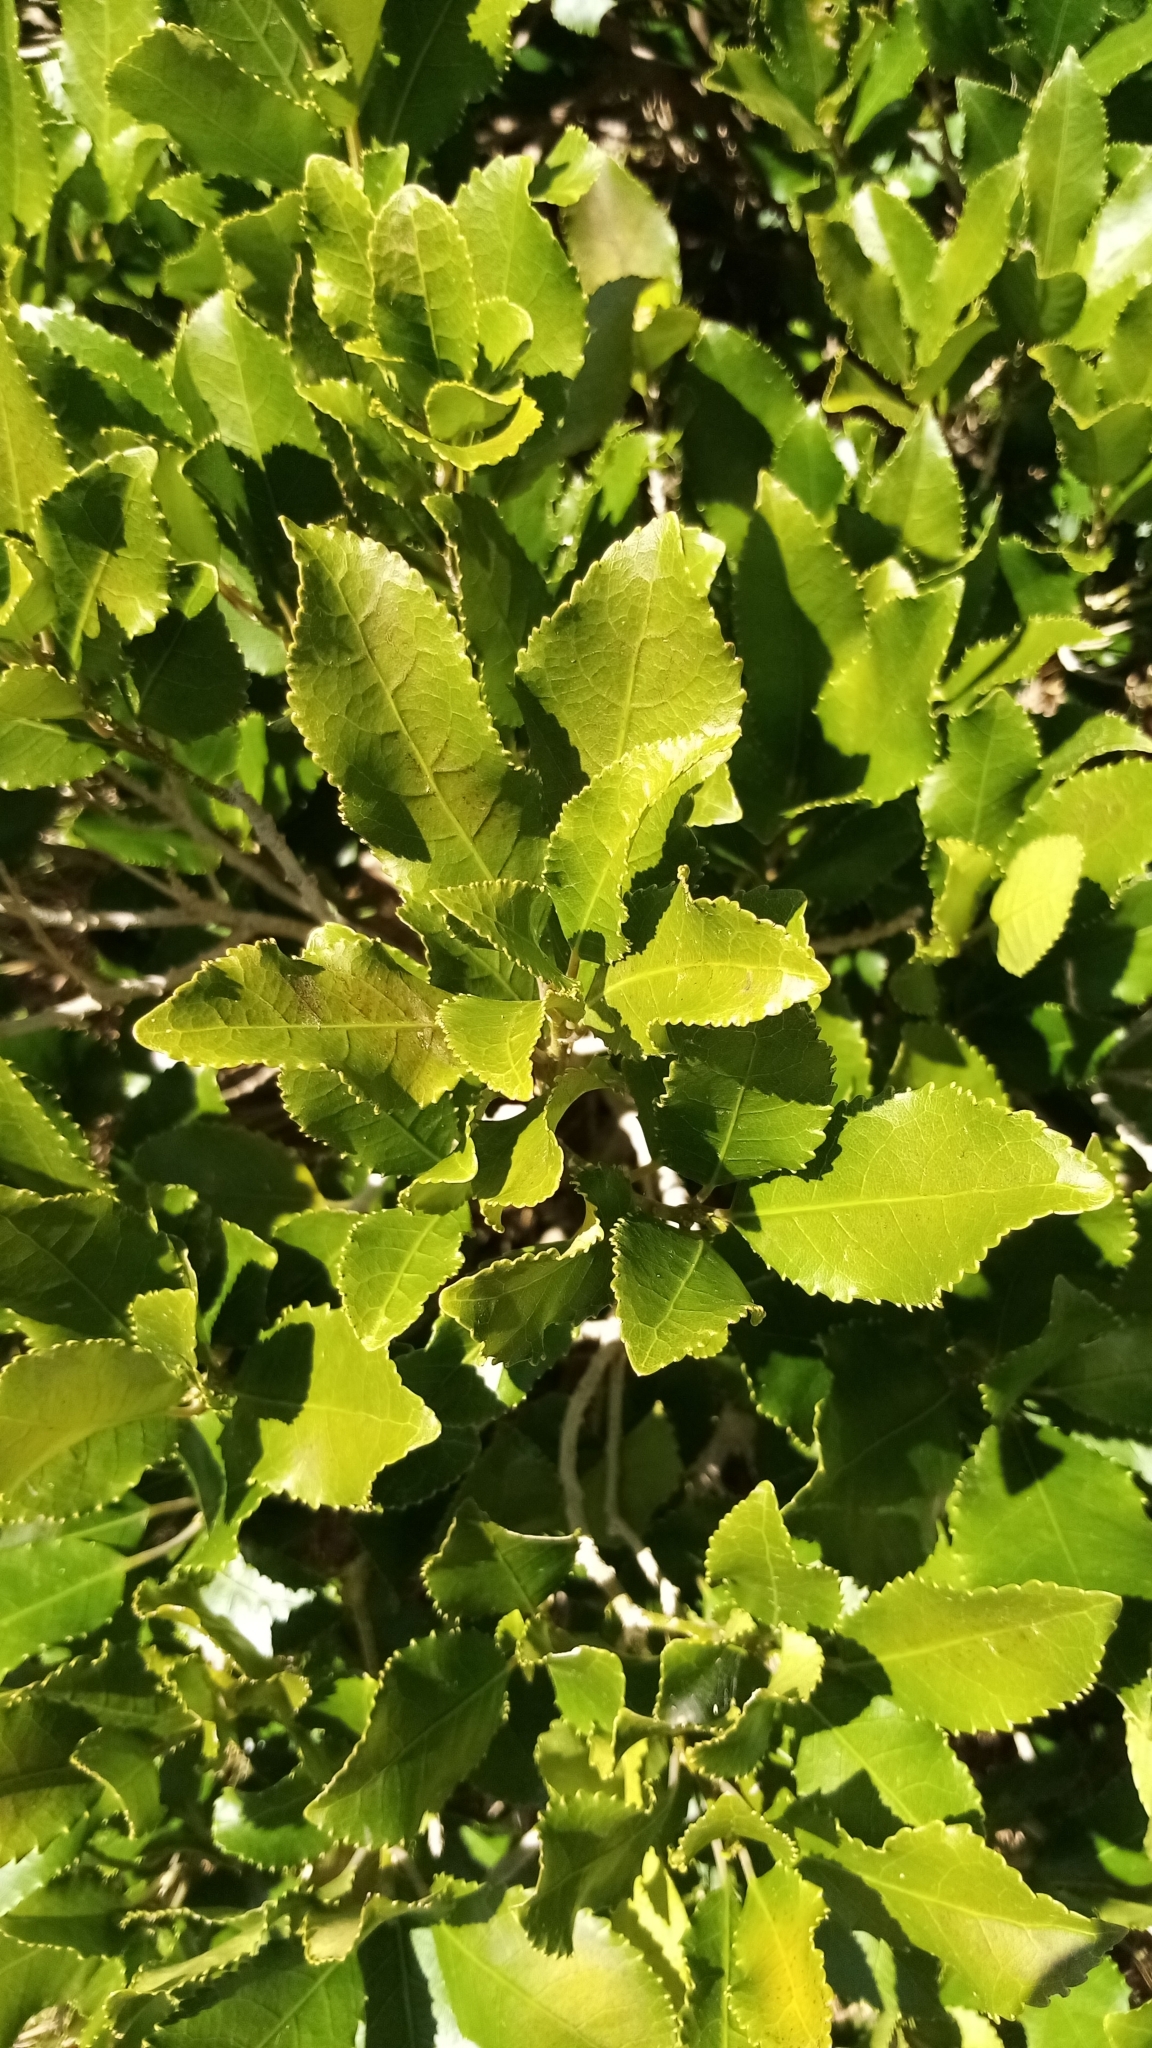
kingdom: Plantae
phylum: Tracheophyta
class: Magnoliopsida
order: Malpighiales
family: Violaceae
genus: Melicytus
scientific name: Melicytus ramiflorus
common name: Mahoe
